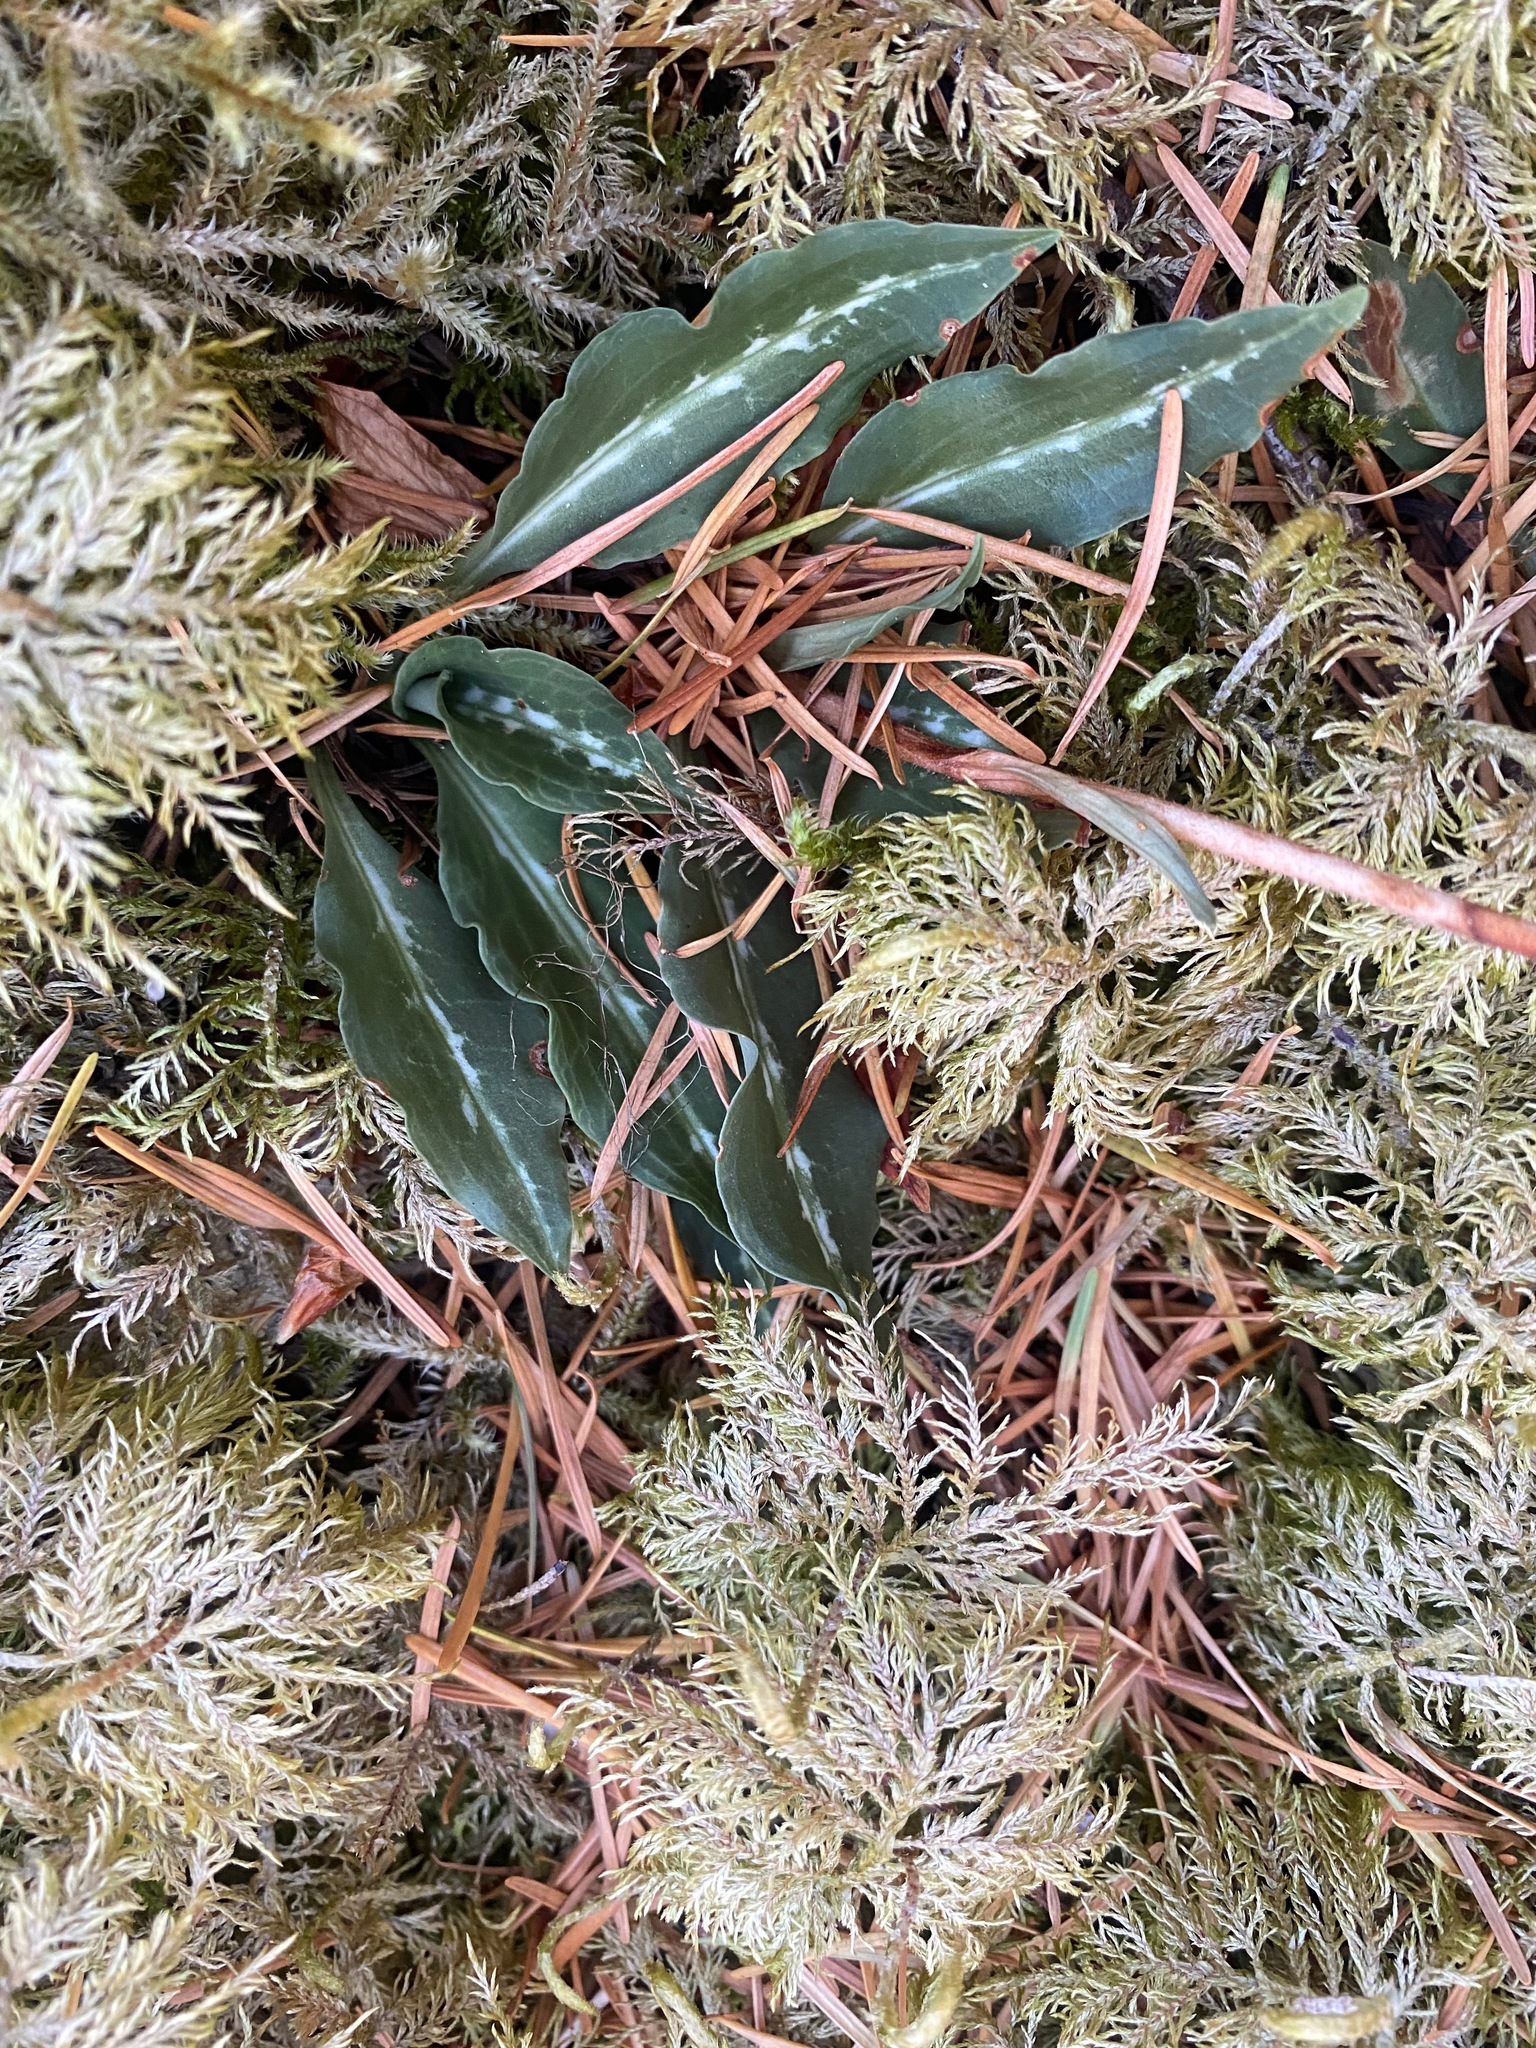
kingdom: Plantae
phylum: Tracheophyta
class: Liliopsida
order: Asparagales
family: Orchidaceae
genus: Goodyera
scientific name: Goodyera oblongifolia
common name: Giant rattlesnake-plantain
